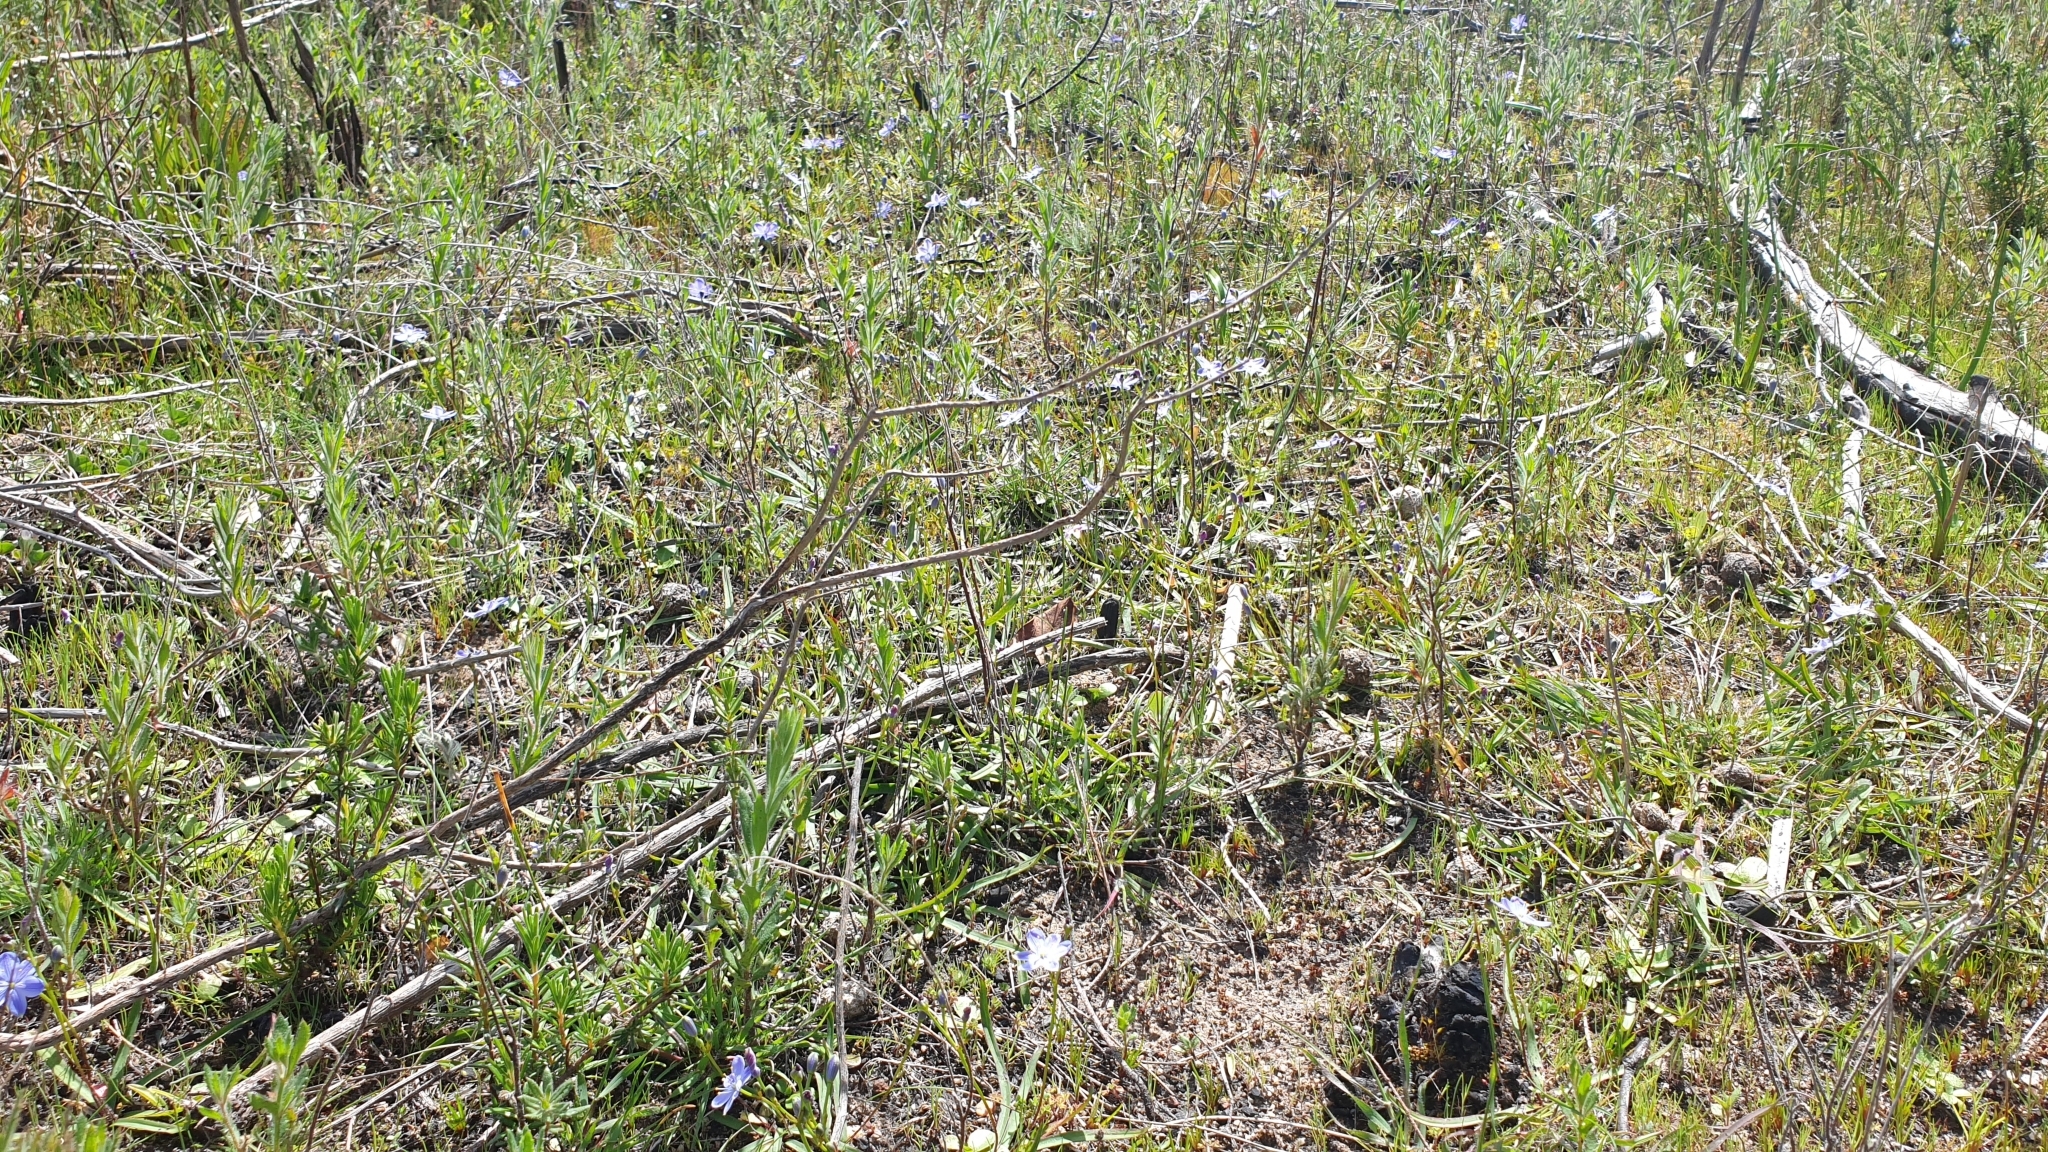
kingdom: Plantae
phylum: Tracheophyta
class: Liliopsida
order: Asparagales
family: Asphodelaceae
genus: Chamaescilla
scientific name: Chamaescilla corymbosa
